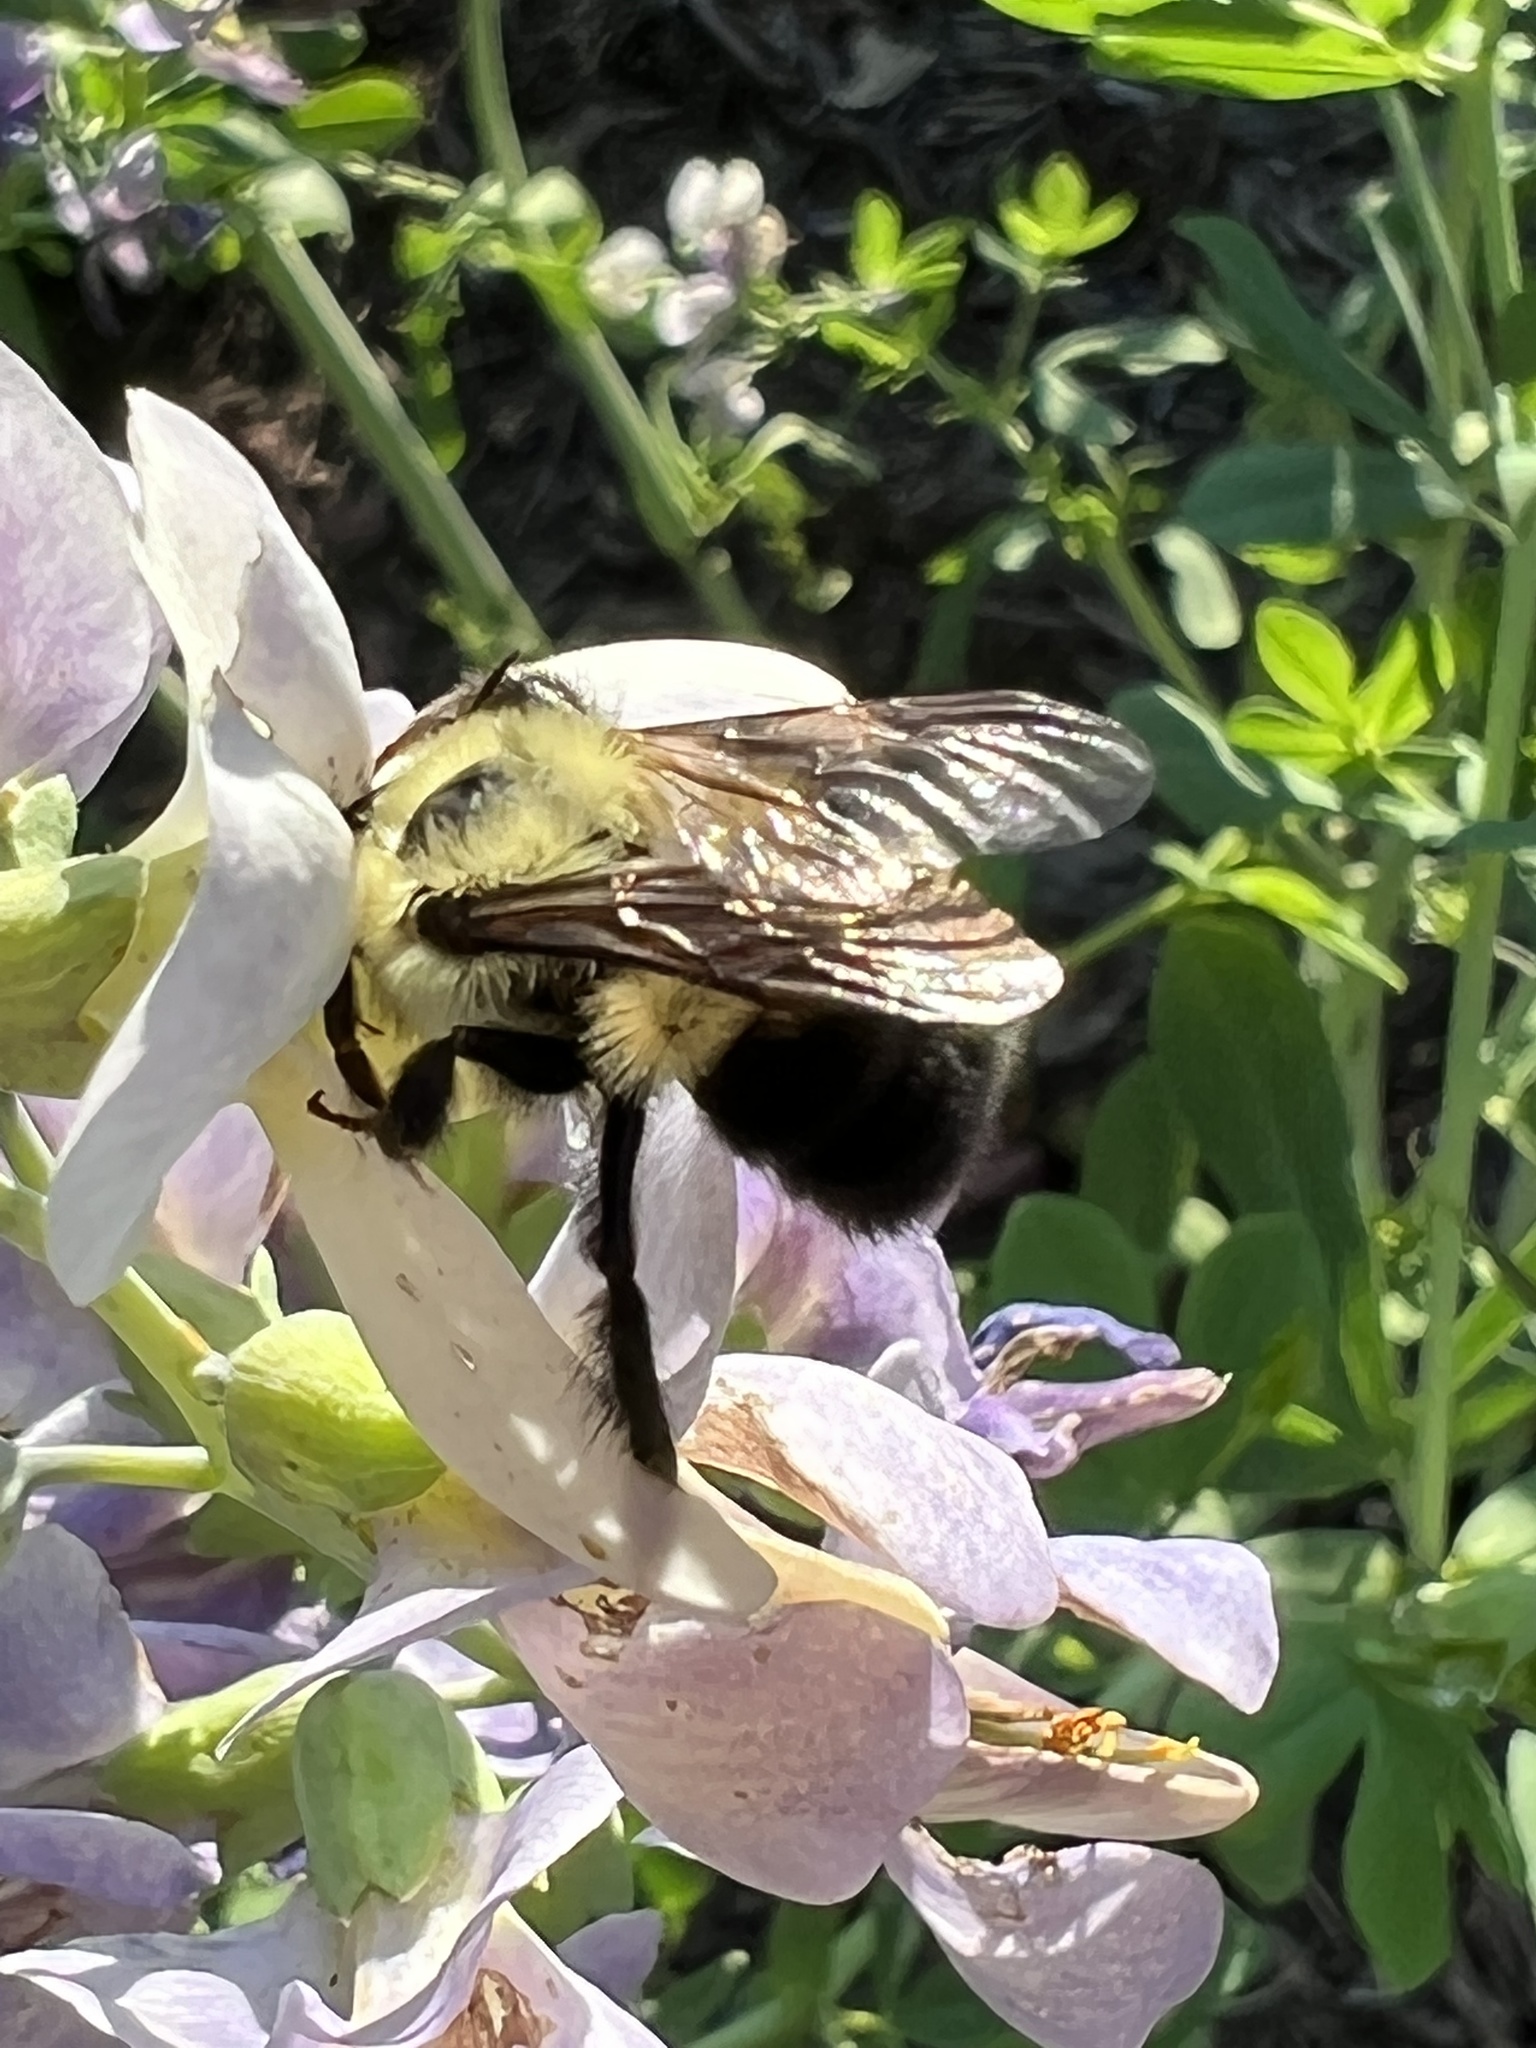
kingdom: Animalia
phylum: Arthropoda
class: Insecta
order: Hymenoptera
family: Apidae
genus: Bombus
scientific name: Bombus bimaculatus
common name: Two-spotted bumble bee
